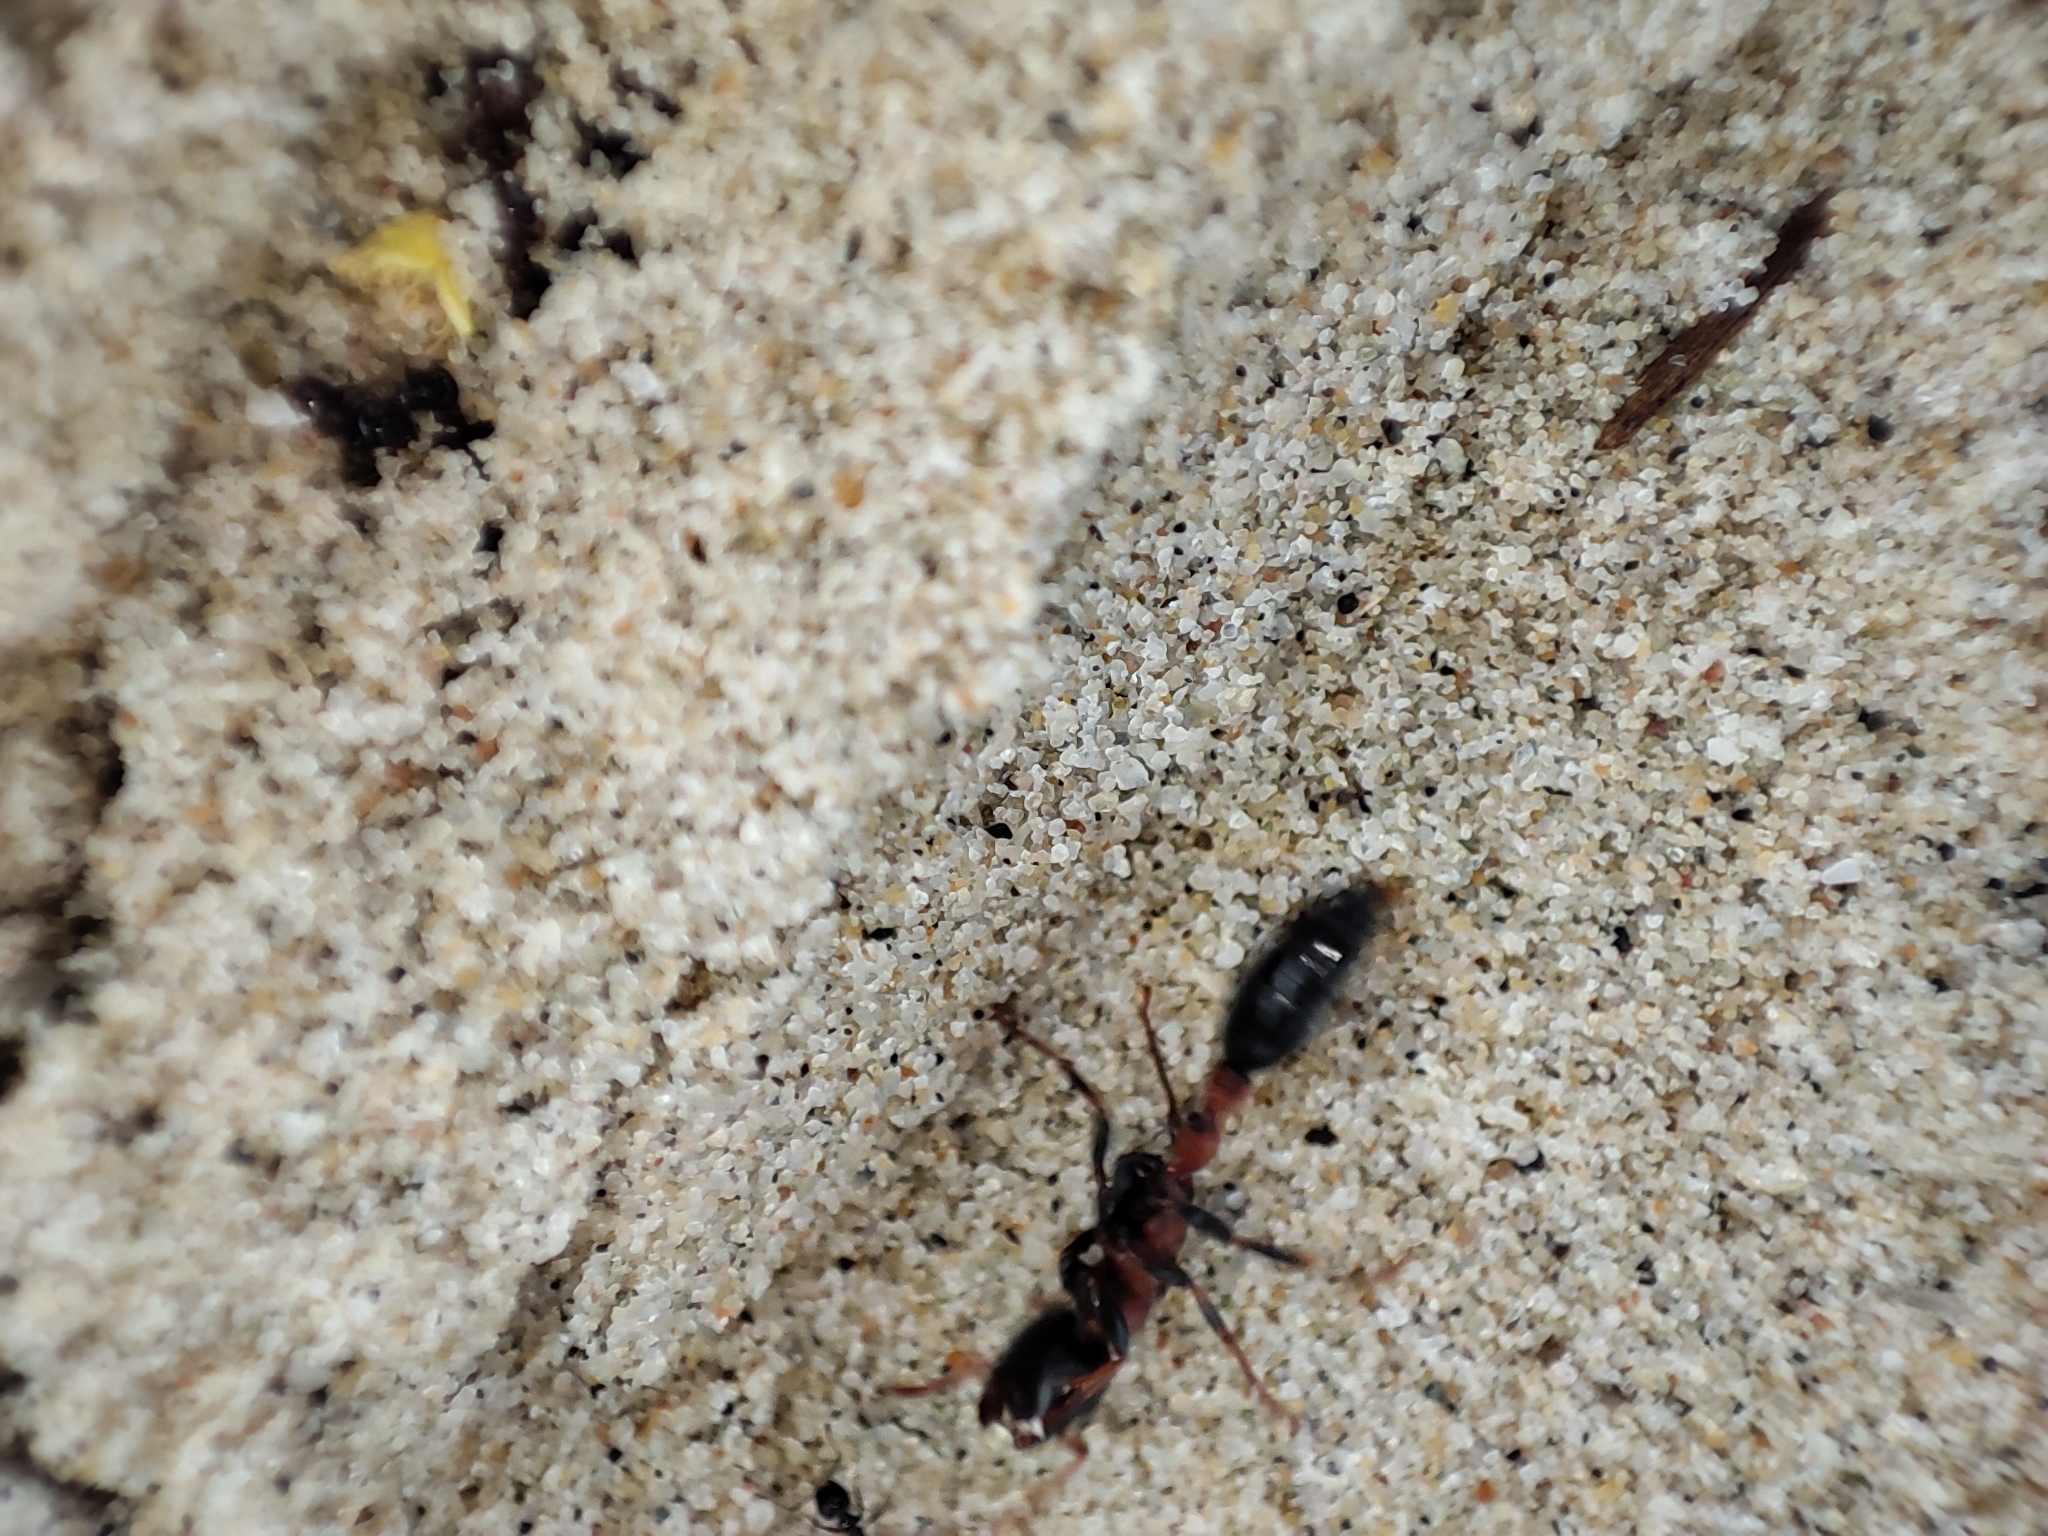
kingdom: Animalia
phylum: Arthropoda
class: Insecta
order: Hymenoptera
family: Formicidae
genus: Tetraponera
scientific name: Tetraponera rufonigra
